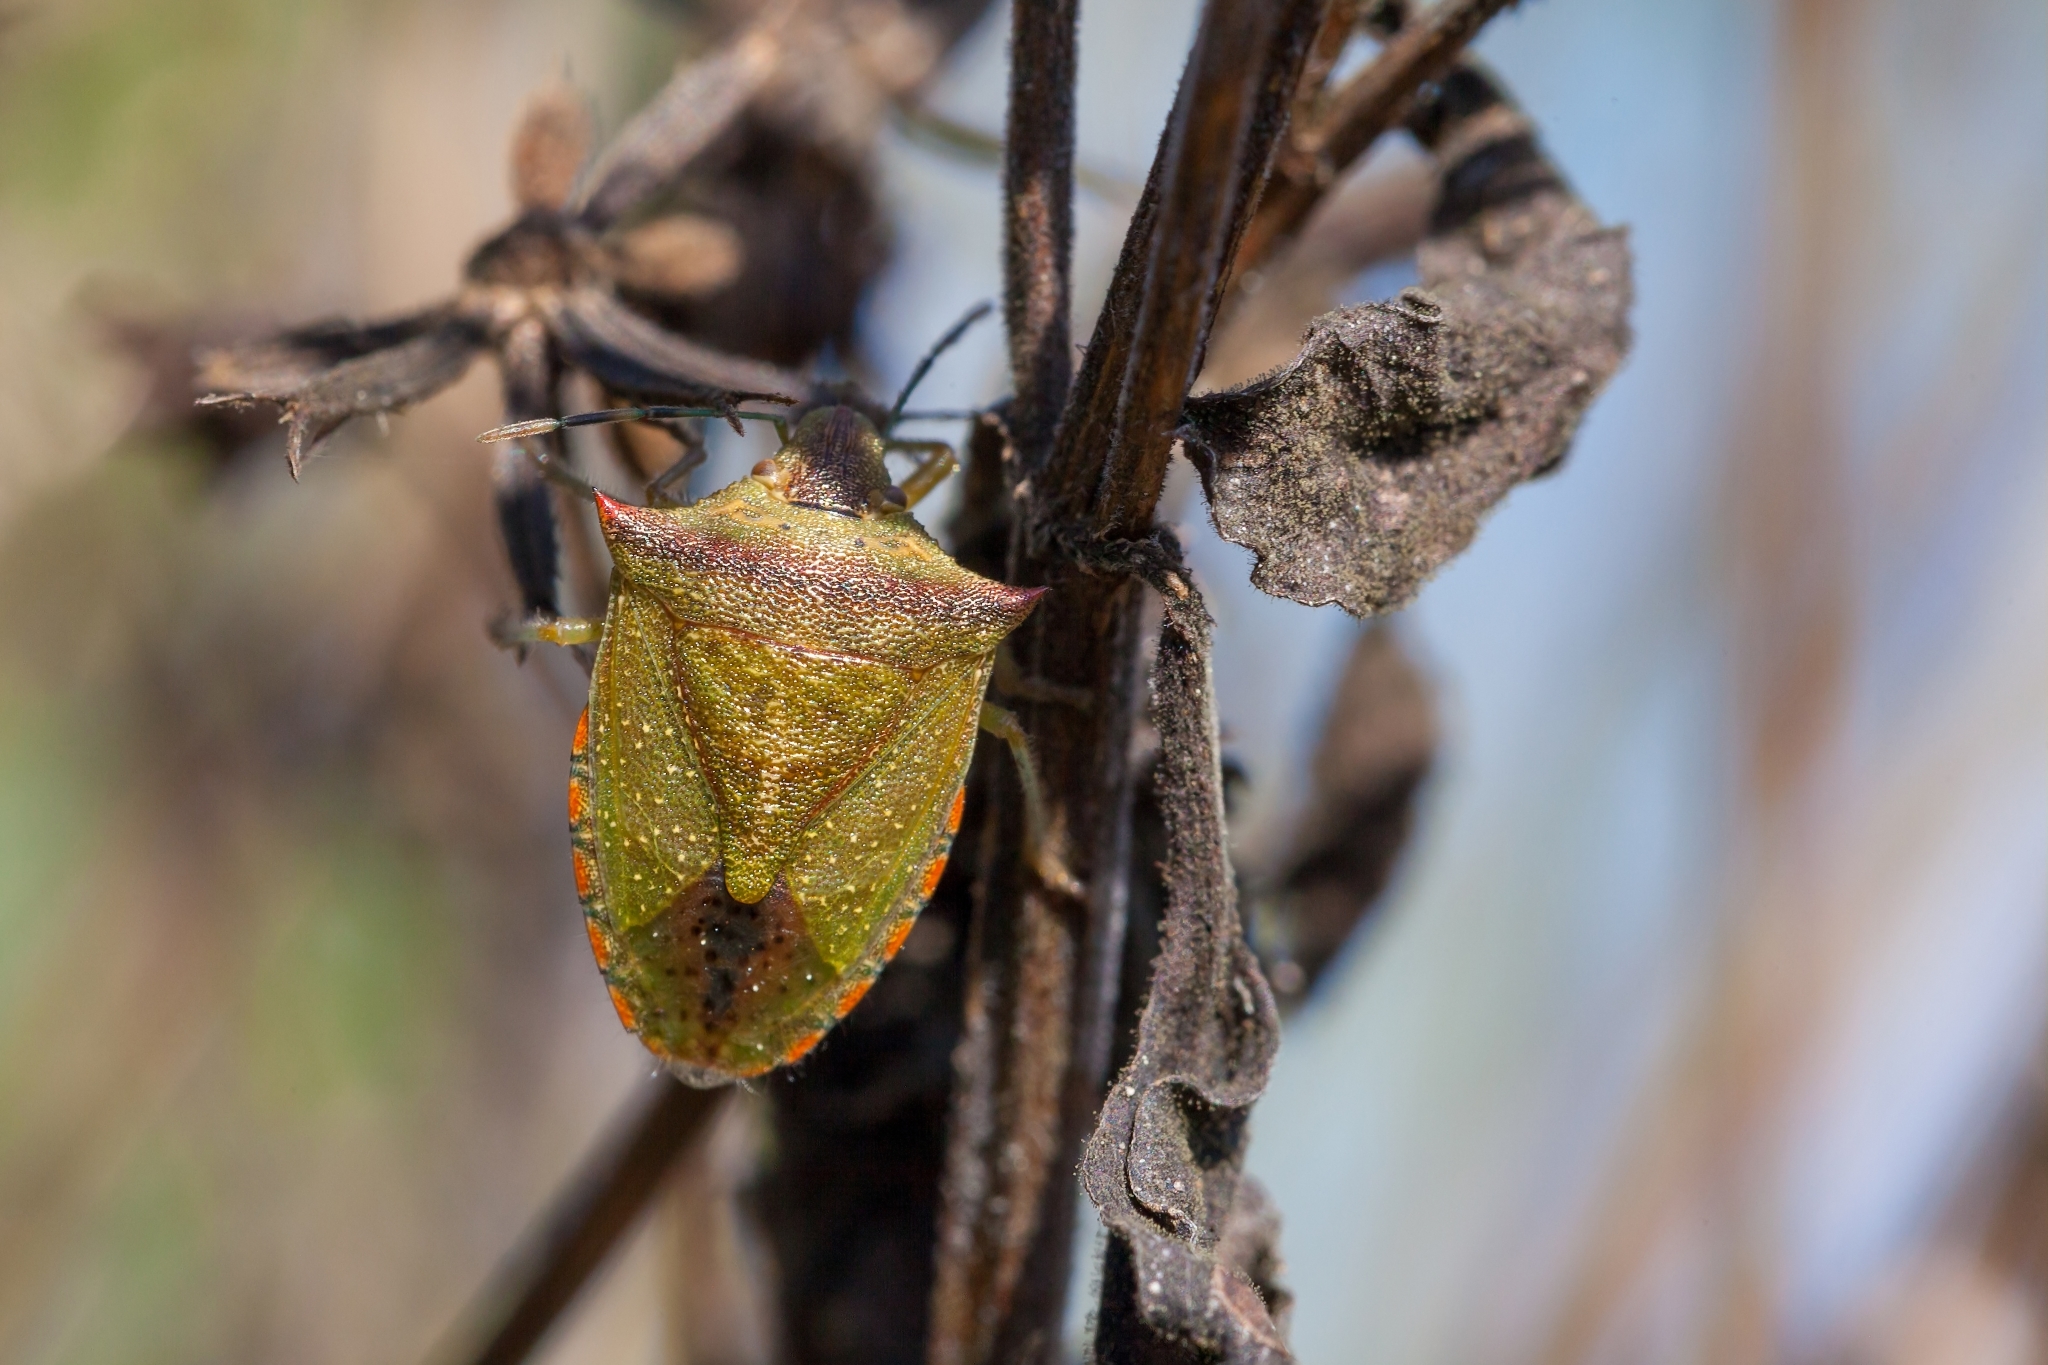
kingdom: Animalia
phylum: Arthropoda
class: Insecta
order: Hemiptera
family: Pentatomidae
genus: Thyanta
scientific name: Thyanta perditor
